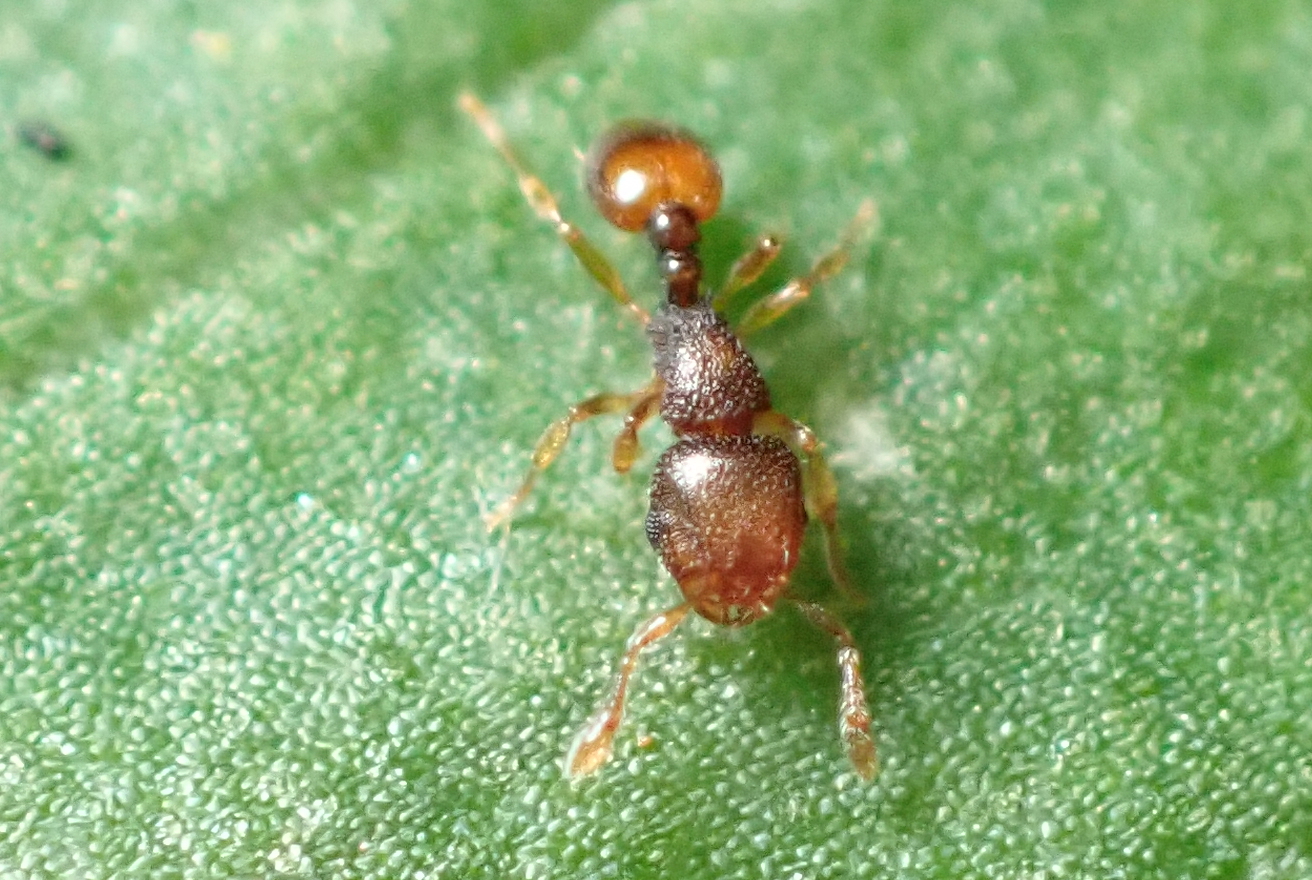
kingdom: Animalia
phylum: Arthropoda
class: Insecta
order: Hymenoptera
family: Formicidae
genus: Mayriella
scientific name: Mayriella abstinens
